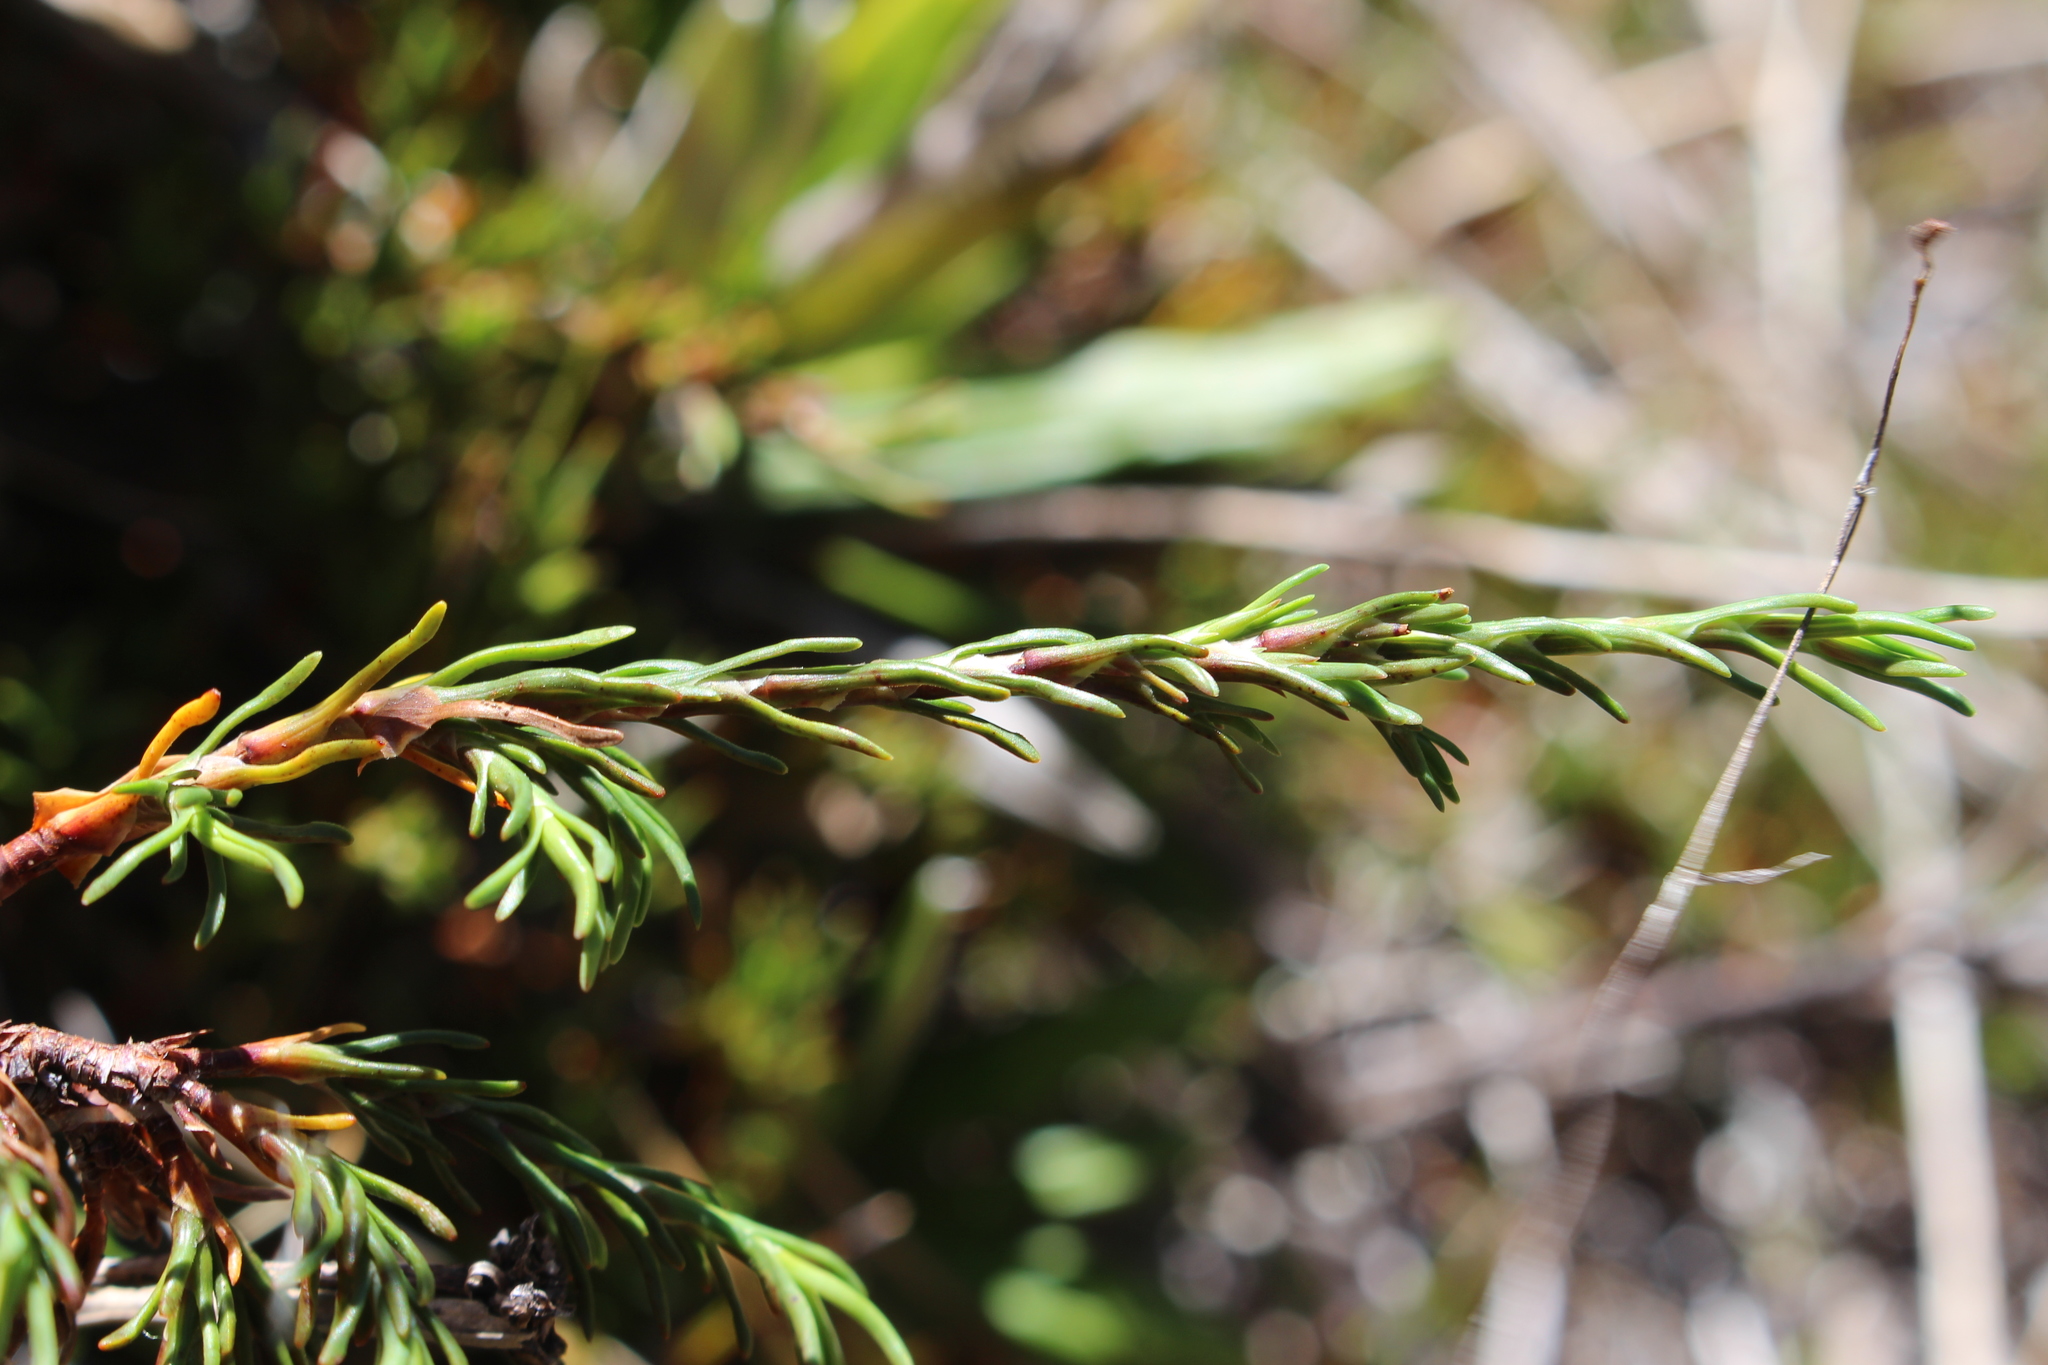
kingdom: Plantae
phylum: Tracheophyta
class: Magnoliopsida
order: Ericales
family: Ericaceae
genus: Dracophyllum
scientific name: Dracophyllum pronum
